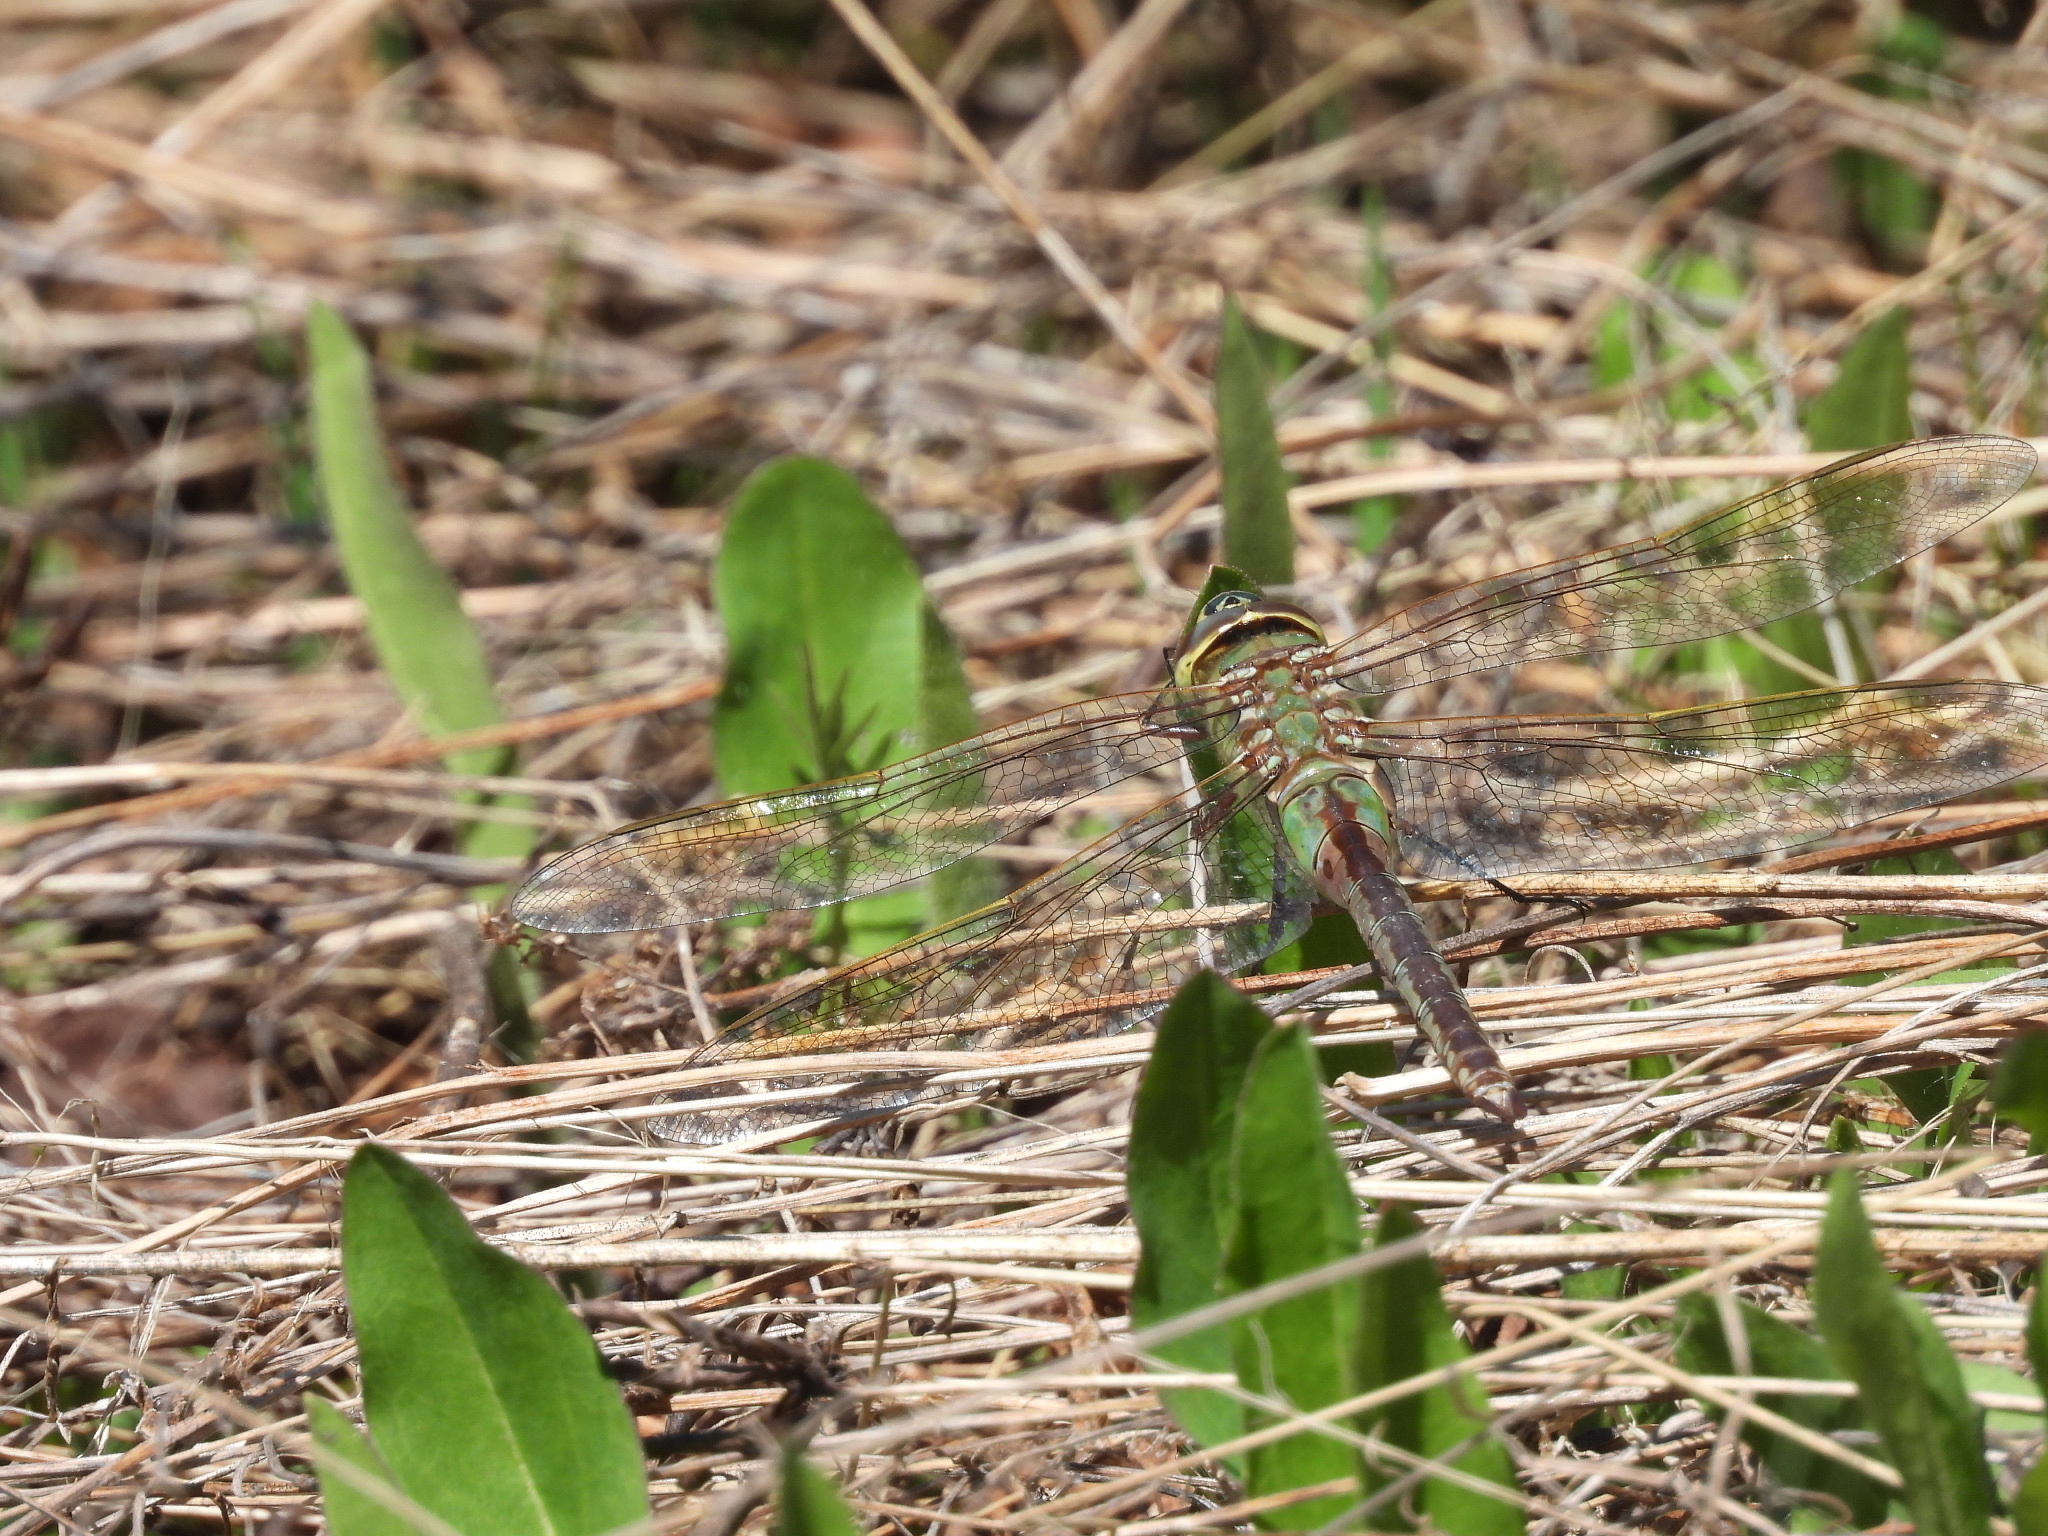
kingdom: Animalia
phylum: Arthropoda
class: Insecta
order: Odonata
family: Aeshnidae
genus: Anax
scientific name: Anax junius
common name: Common green darner
